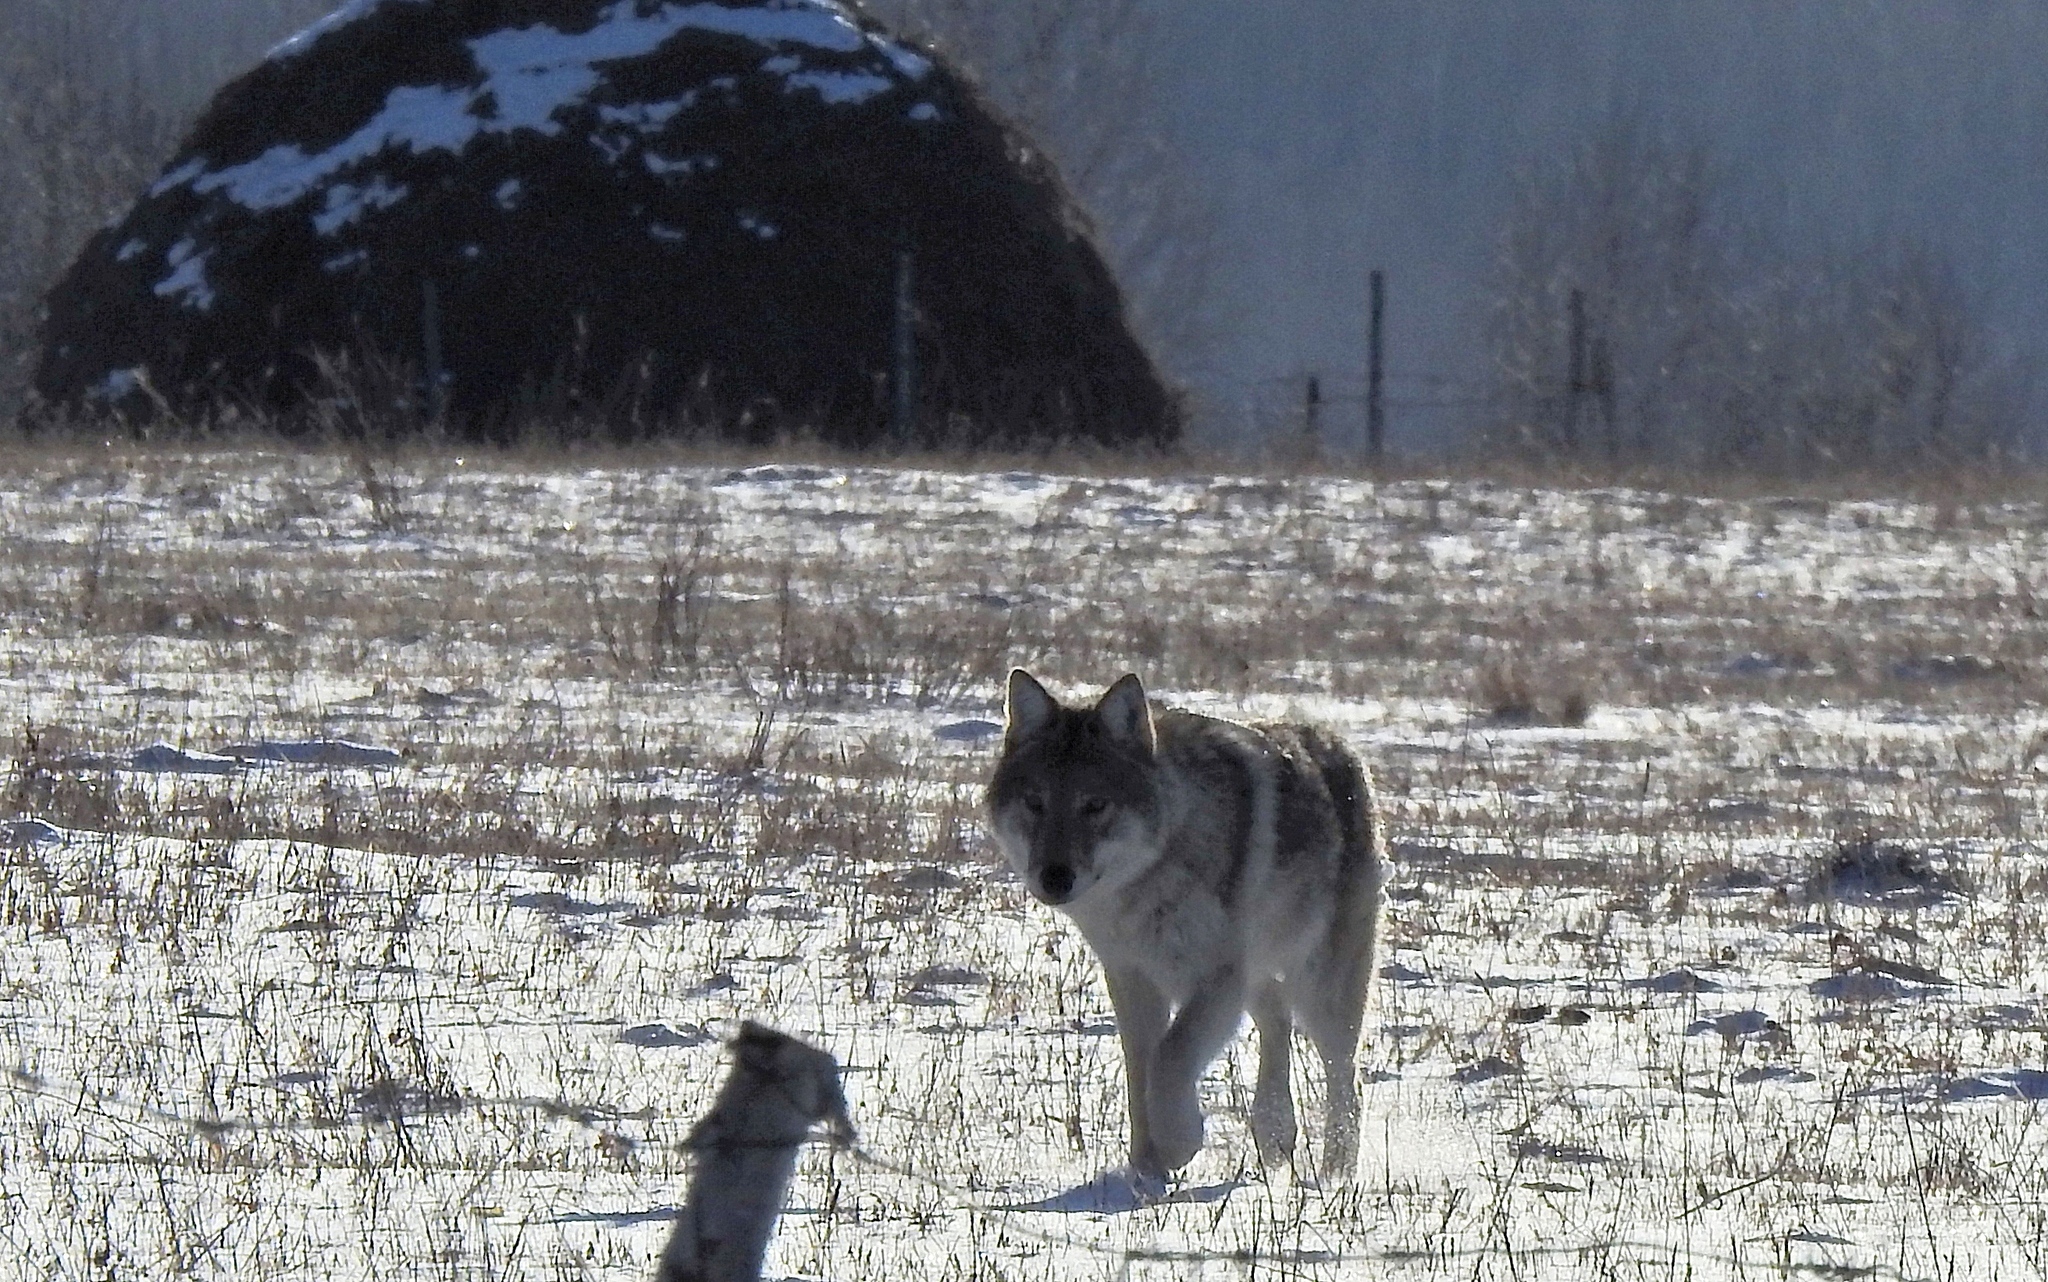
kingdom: Animalia
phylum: Chordata
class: Mammalia
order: Carnivora
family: Canidae
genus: Canis
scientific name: Canis lupus
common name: Gray wolf
